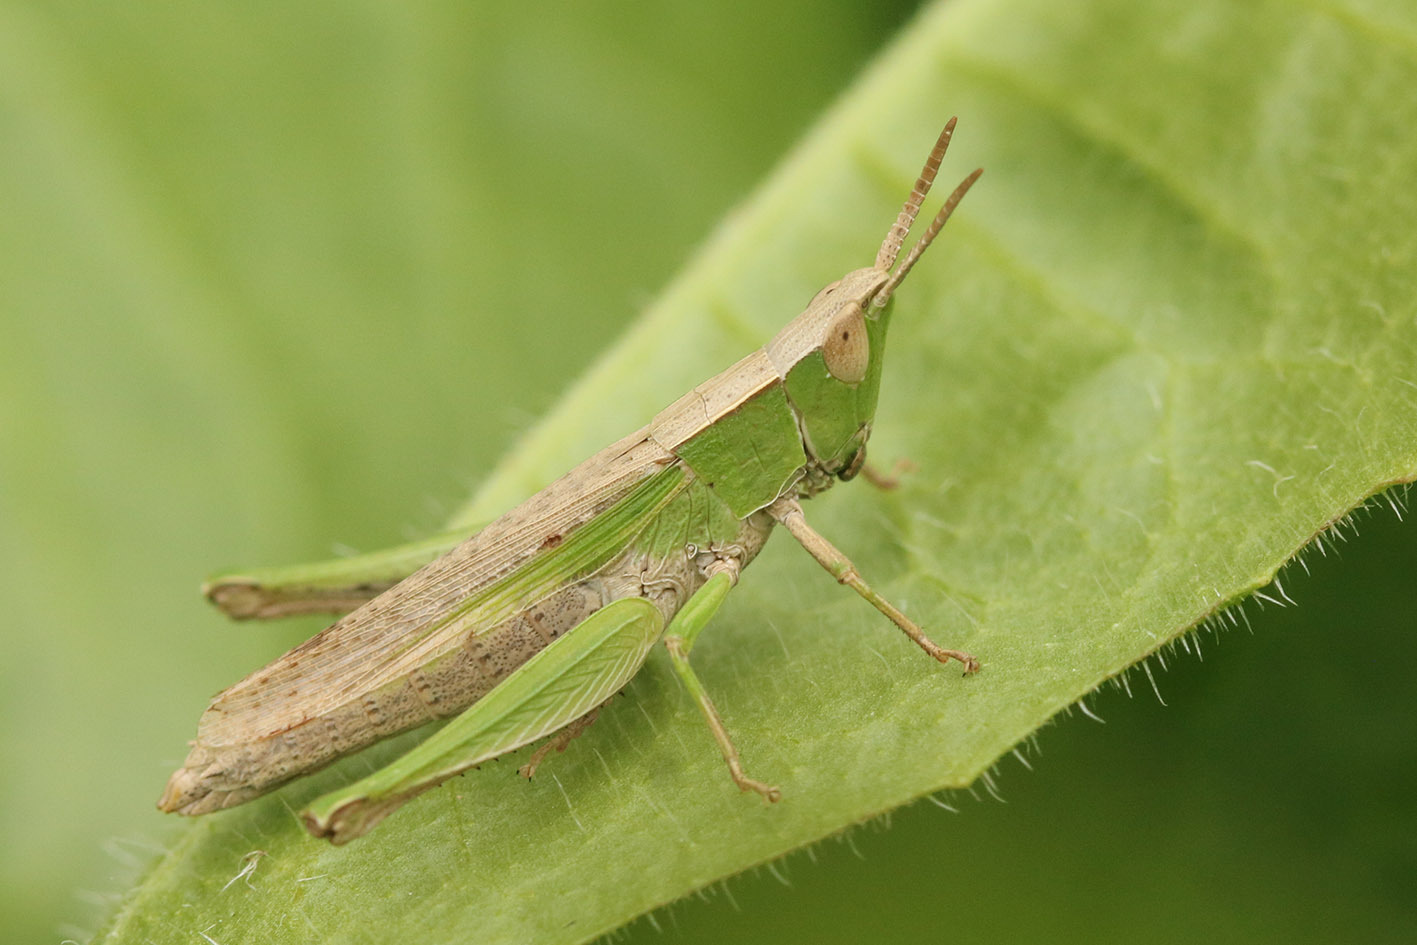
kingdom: Animalia
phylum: Arthropoda
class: Insecta
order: Orthoptera
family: Acrididae
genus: Laplatacris
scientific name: Laplatacris dispar
